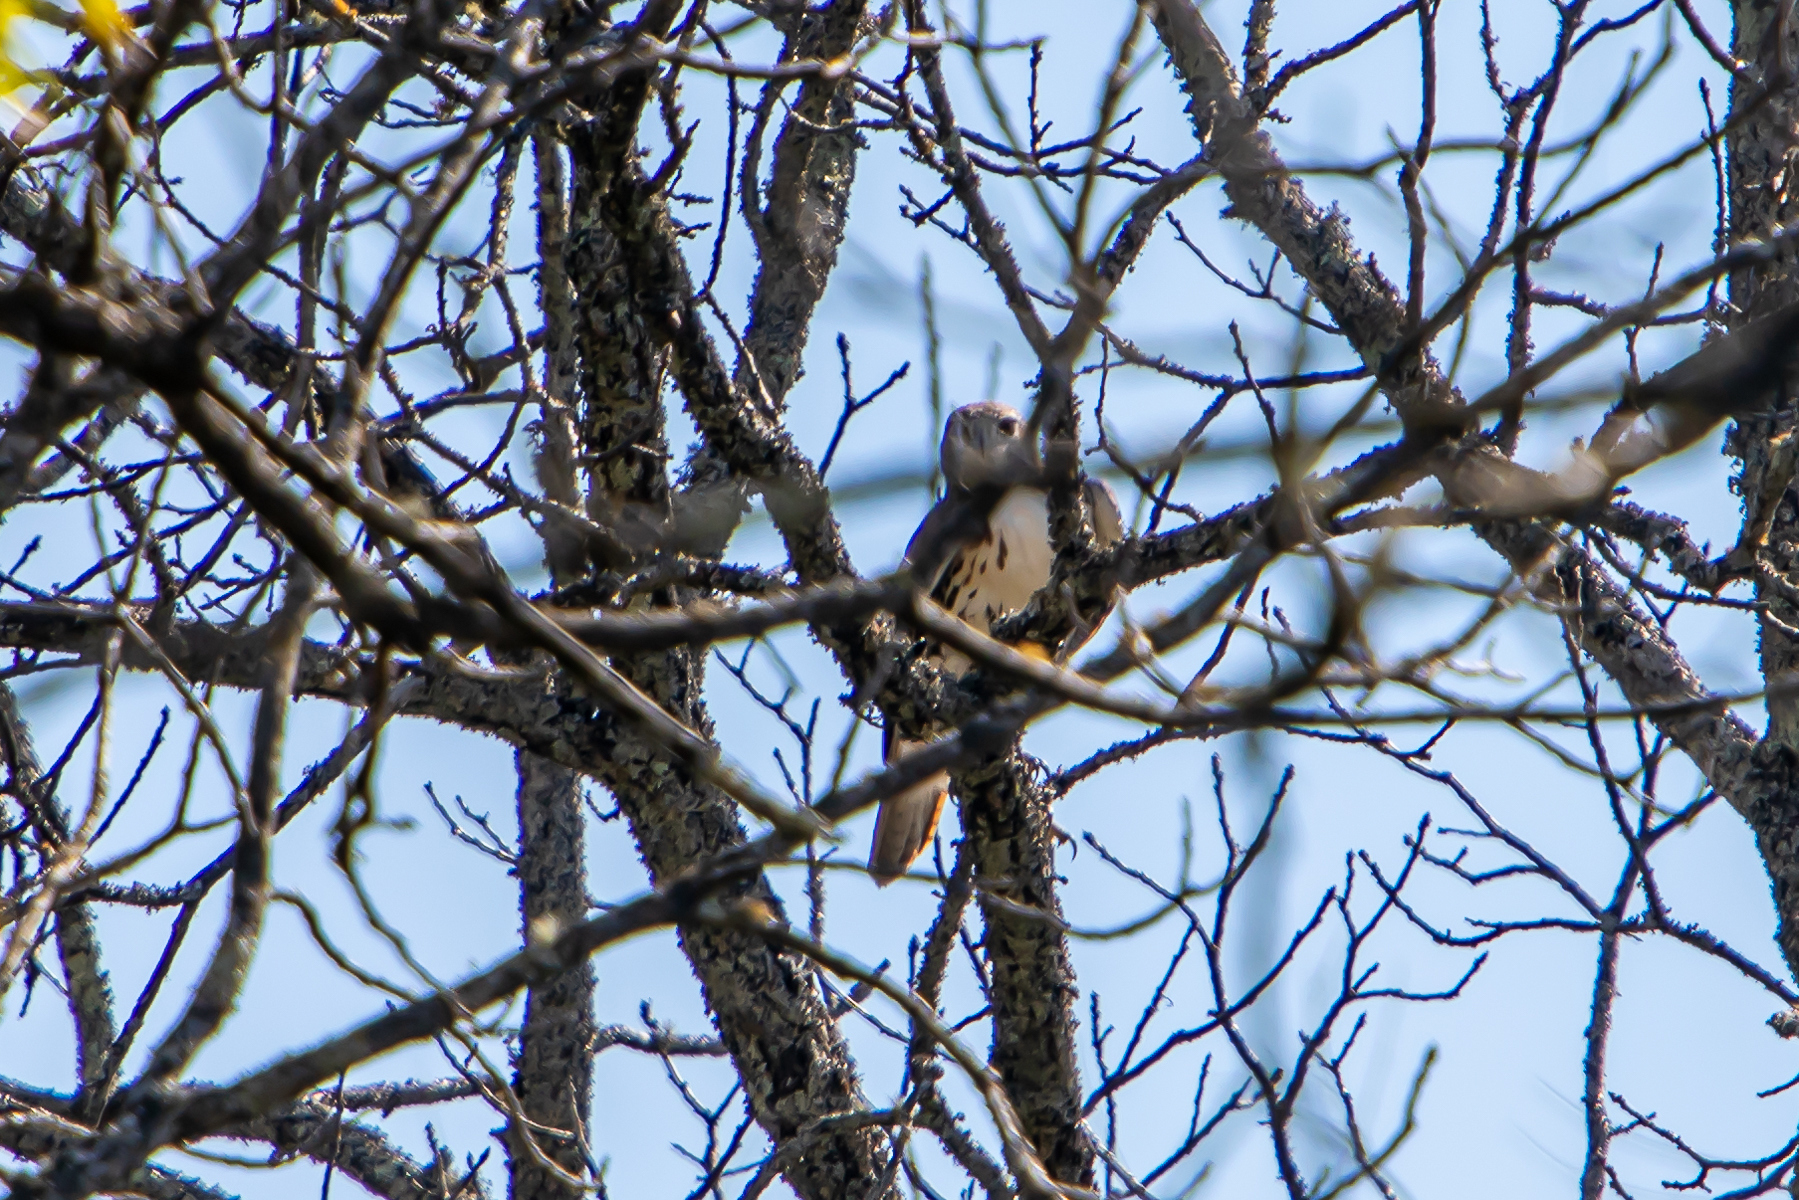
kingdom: Animalia
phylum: Chordata
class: Aves
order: Accipitriformes
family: Accipitridae
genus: Buteo
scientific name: Buteo jamaicensis
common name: Red-tailed hawk
